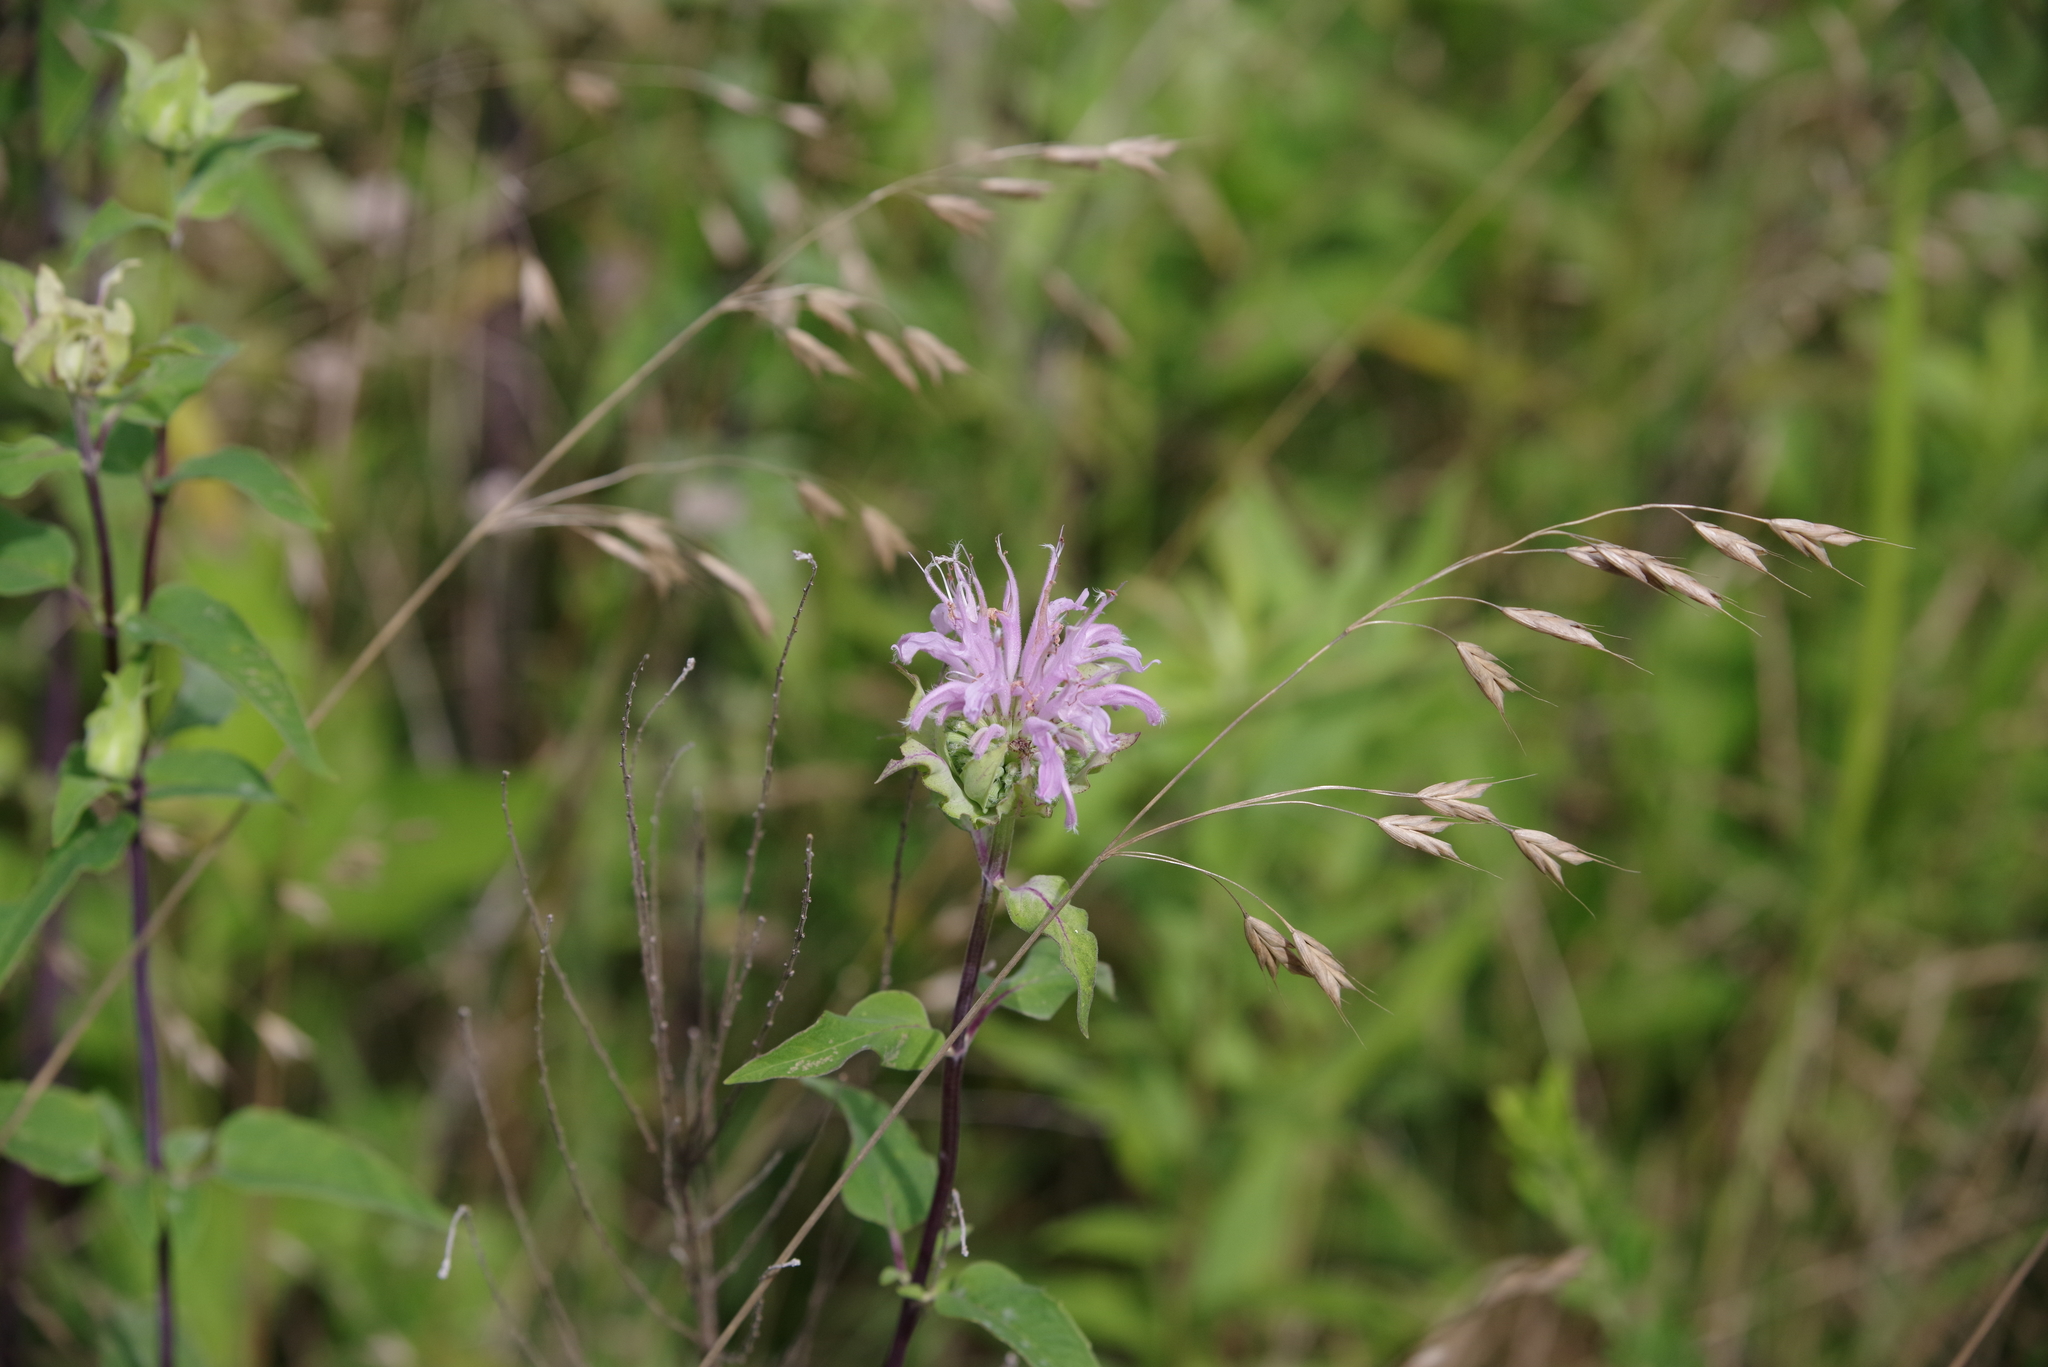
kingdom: Plantae
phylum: Tracheophyta
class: Magnoliopsida
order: Lamiales
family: Lamiaceae
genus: Monarda
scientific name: Monarda fistulosa
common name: Purple beebalm
